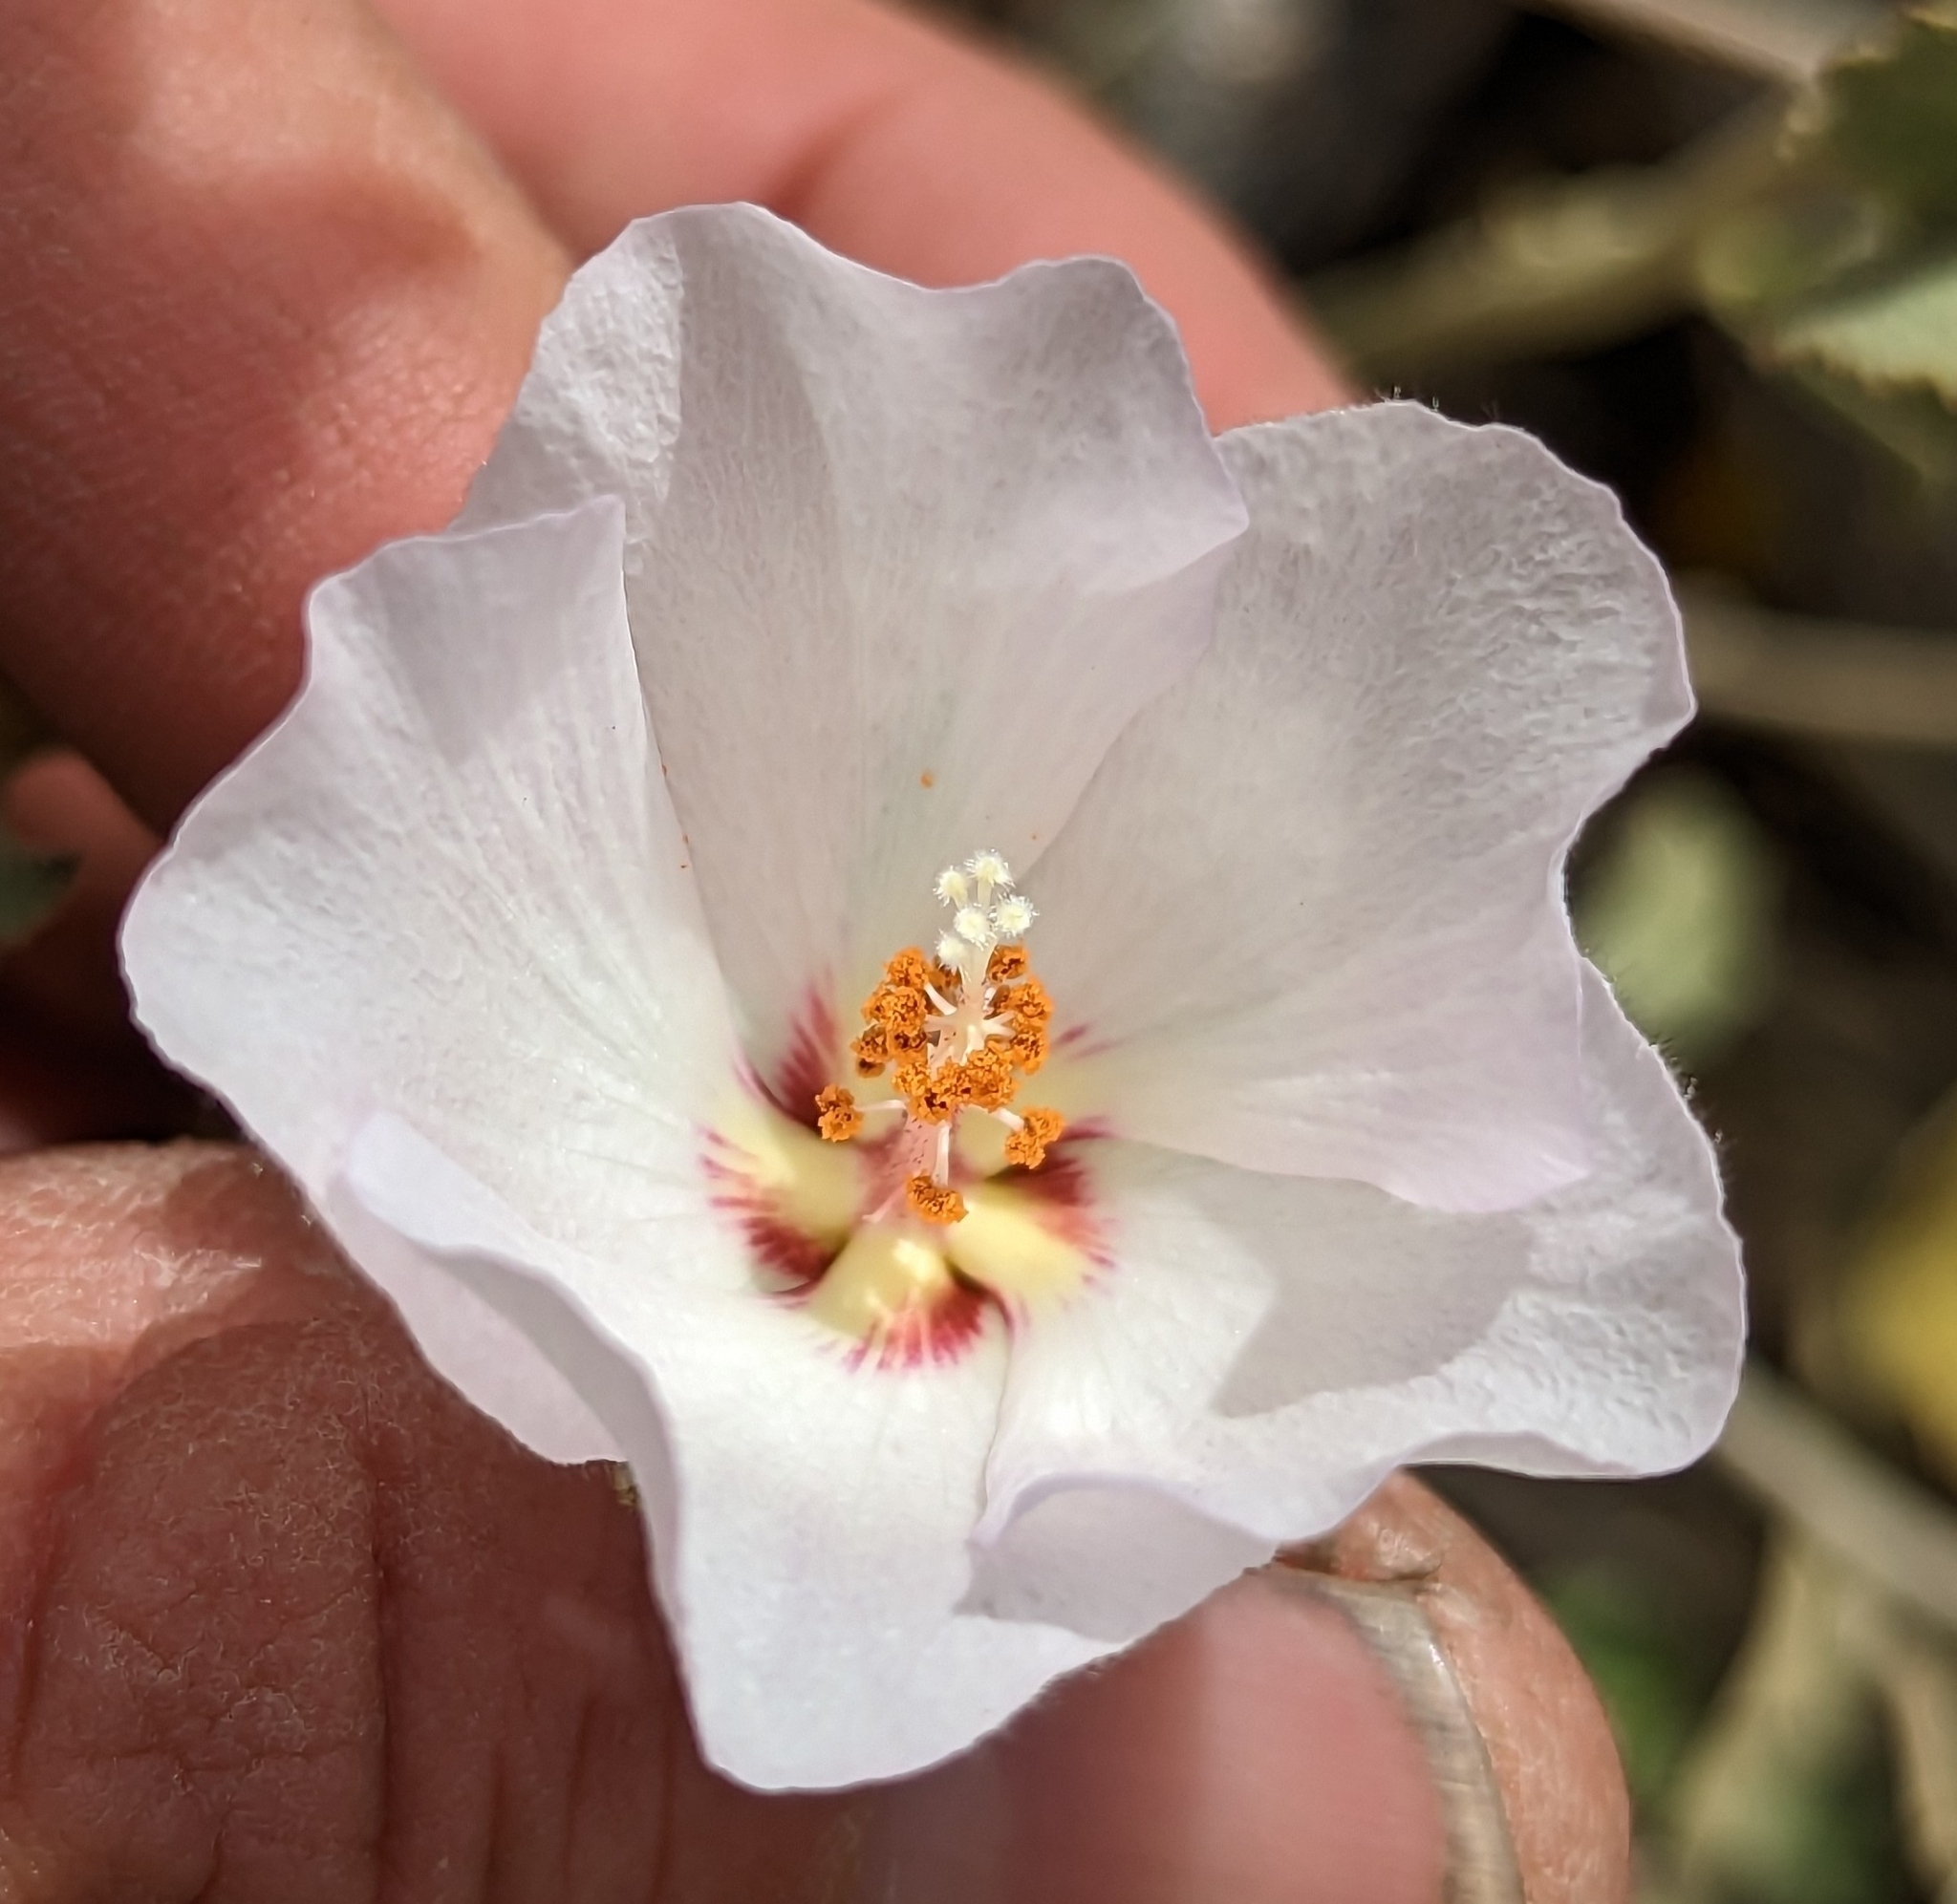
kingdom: Plantae
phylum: Tracheophyta
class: Magnoliopsida
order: Malvales
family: Malvaceae
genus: Hibiscus
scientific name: Hibiscus denudatus
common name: Paleface
